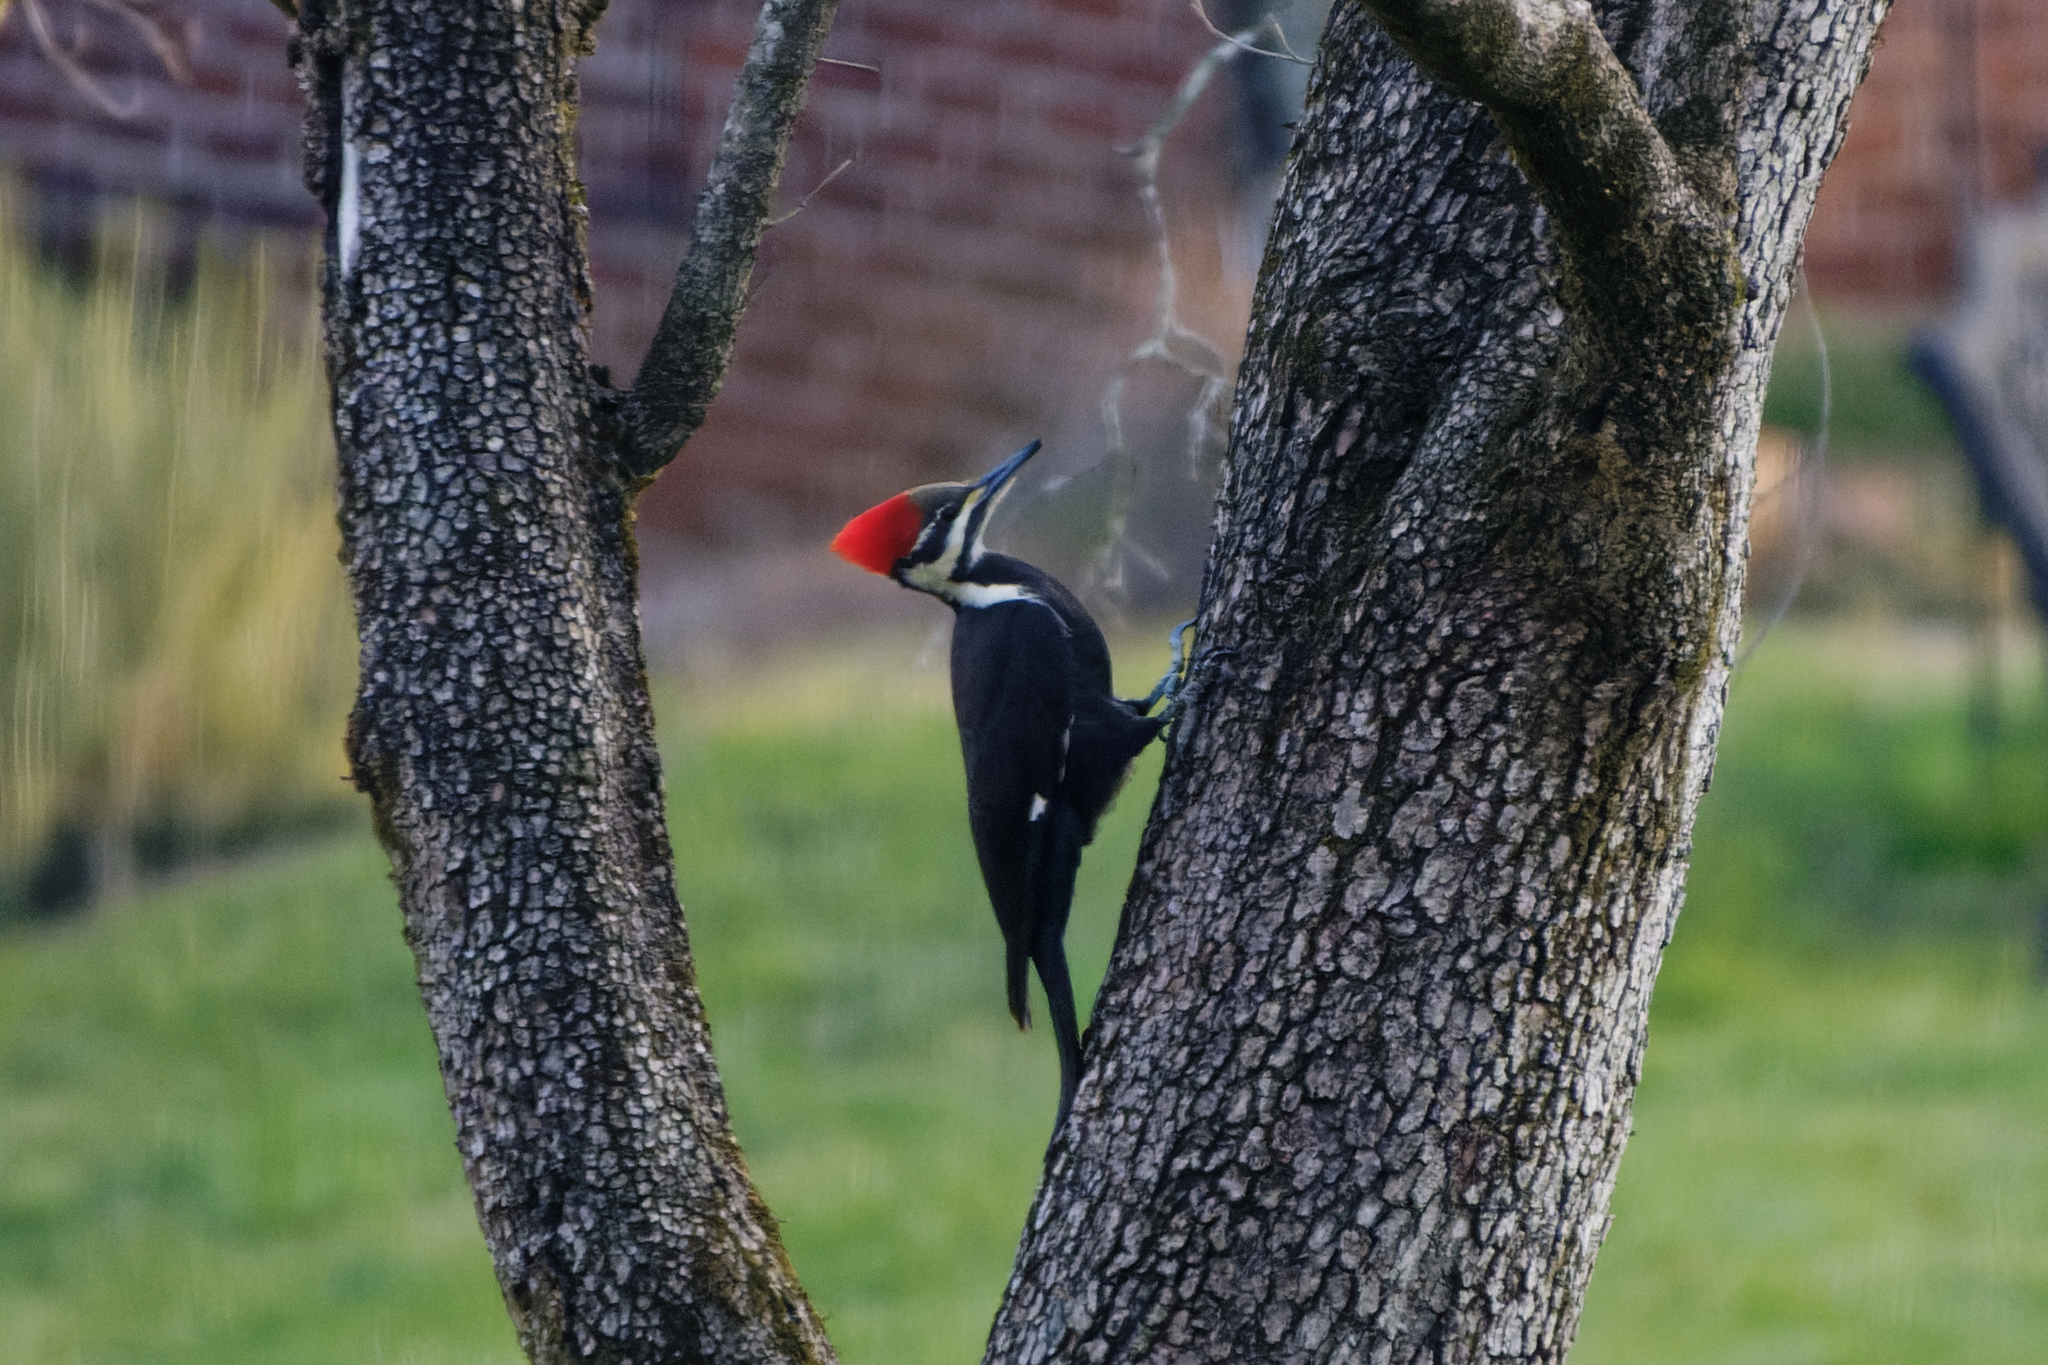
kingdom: Animalia
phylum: Chordata
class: Aves
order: Piciformes
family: Picidae
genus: Dryocopus
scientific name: Dryocopus pileatus
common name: Pileated woodpecker
